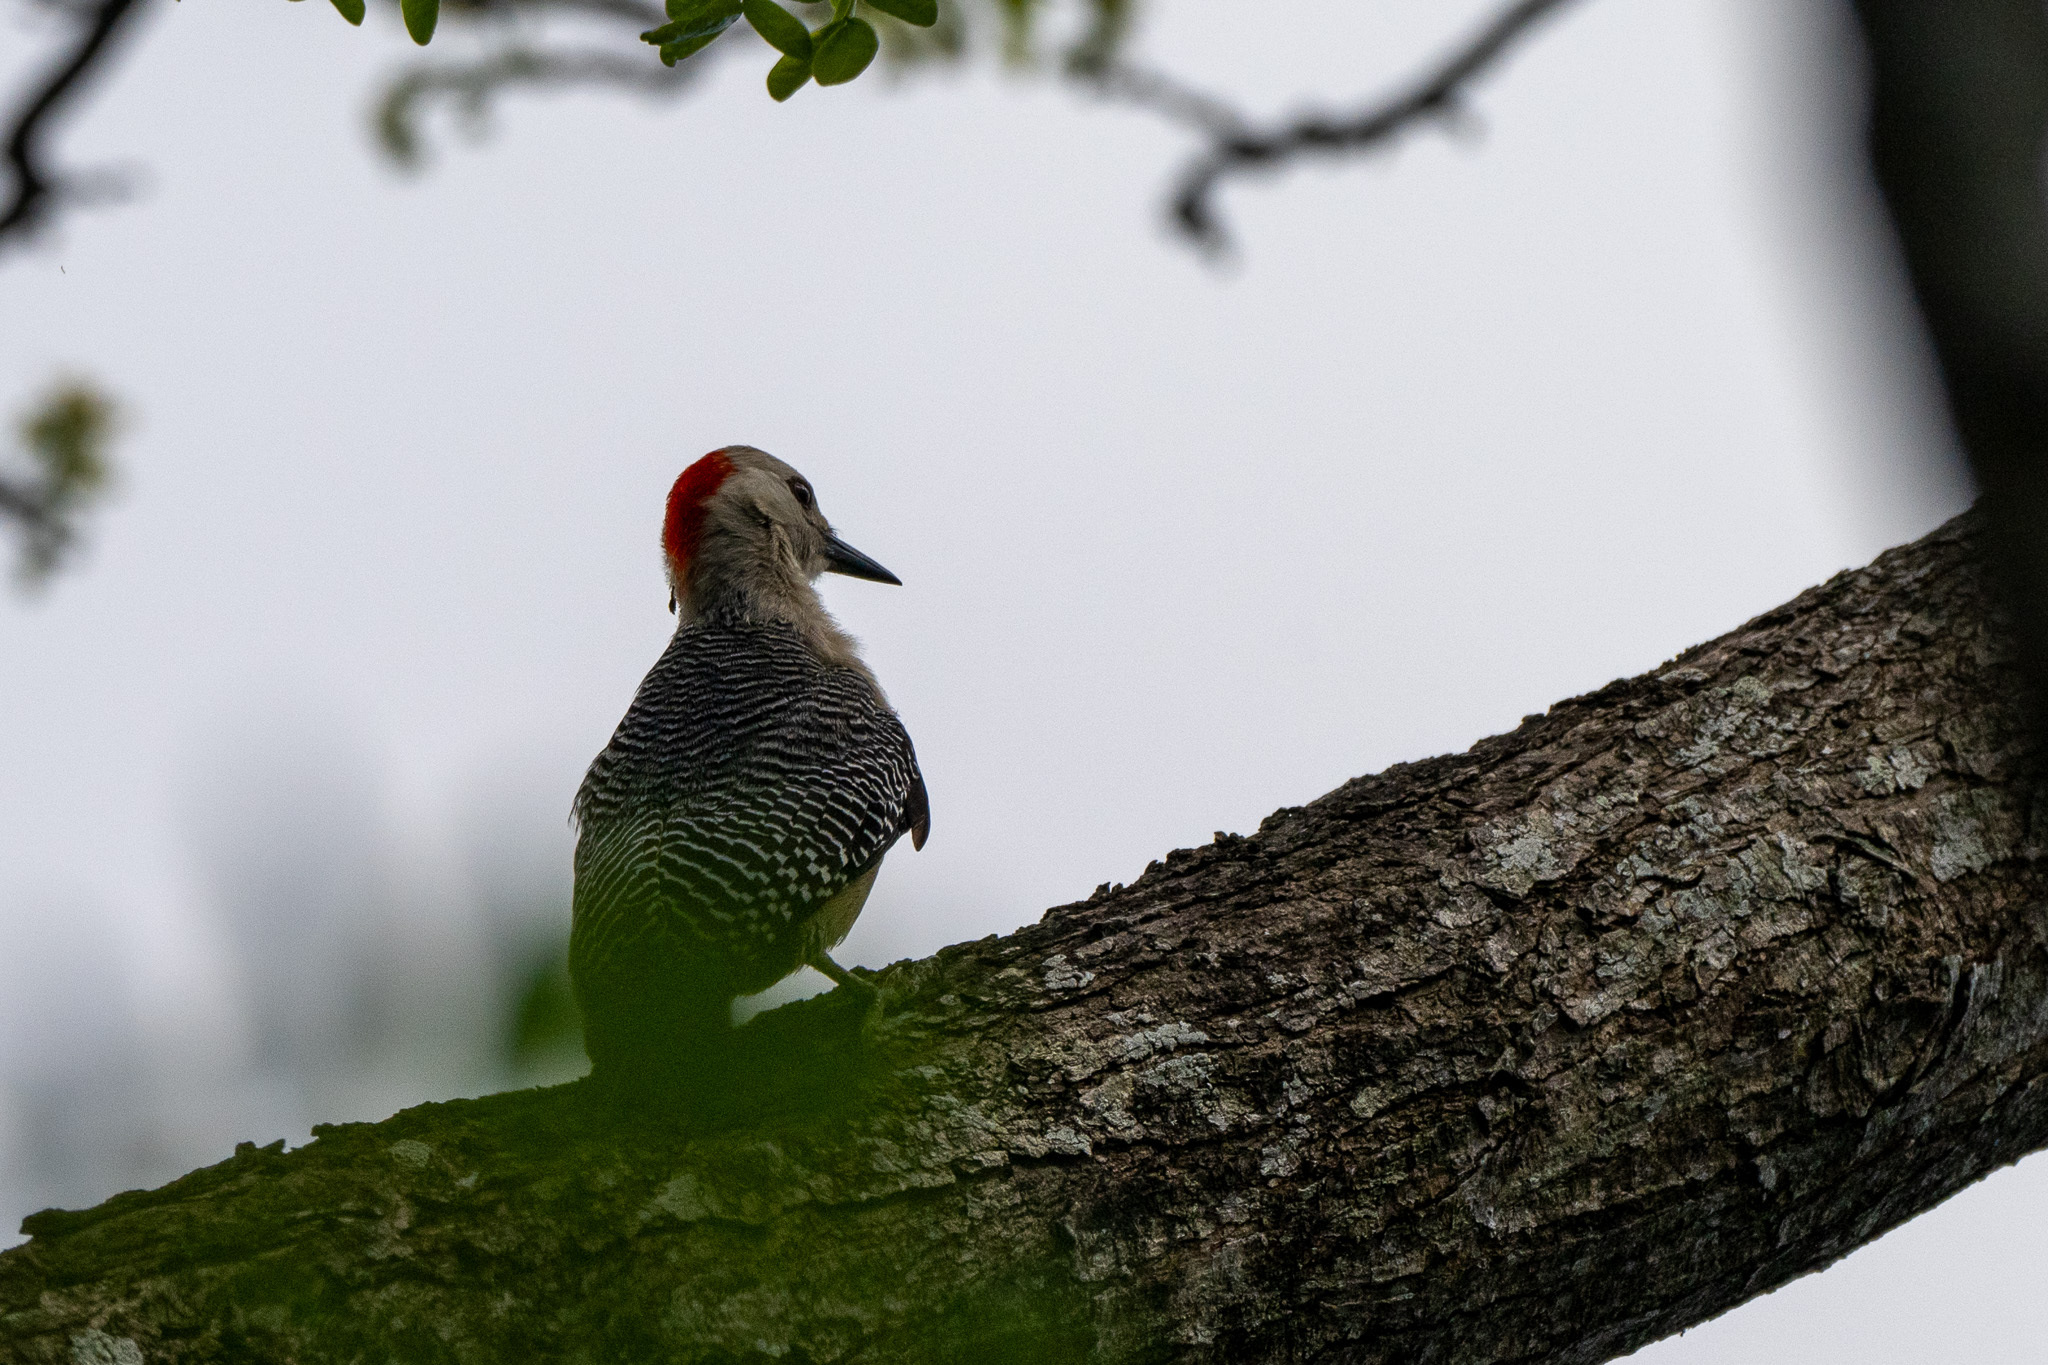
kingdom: Animalia
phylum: Chordata
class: Aves
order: Piciformes
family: Picidae
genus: Melanerpes
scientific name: Melanerpes aurifrons
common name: Golden-fronted woodpecker
